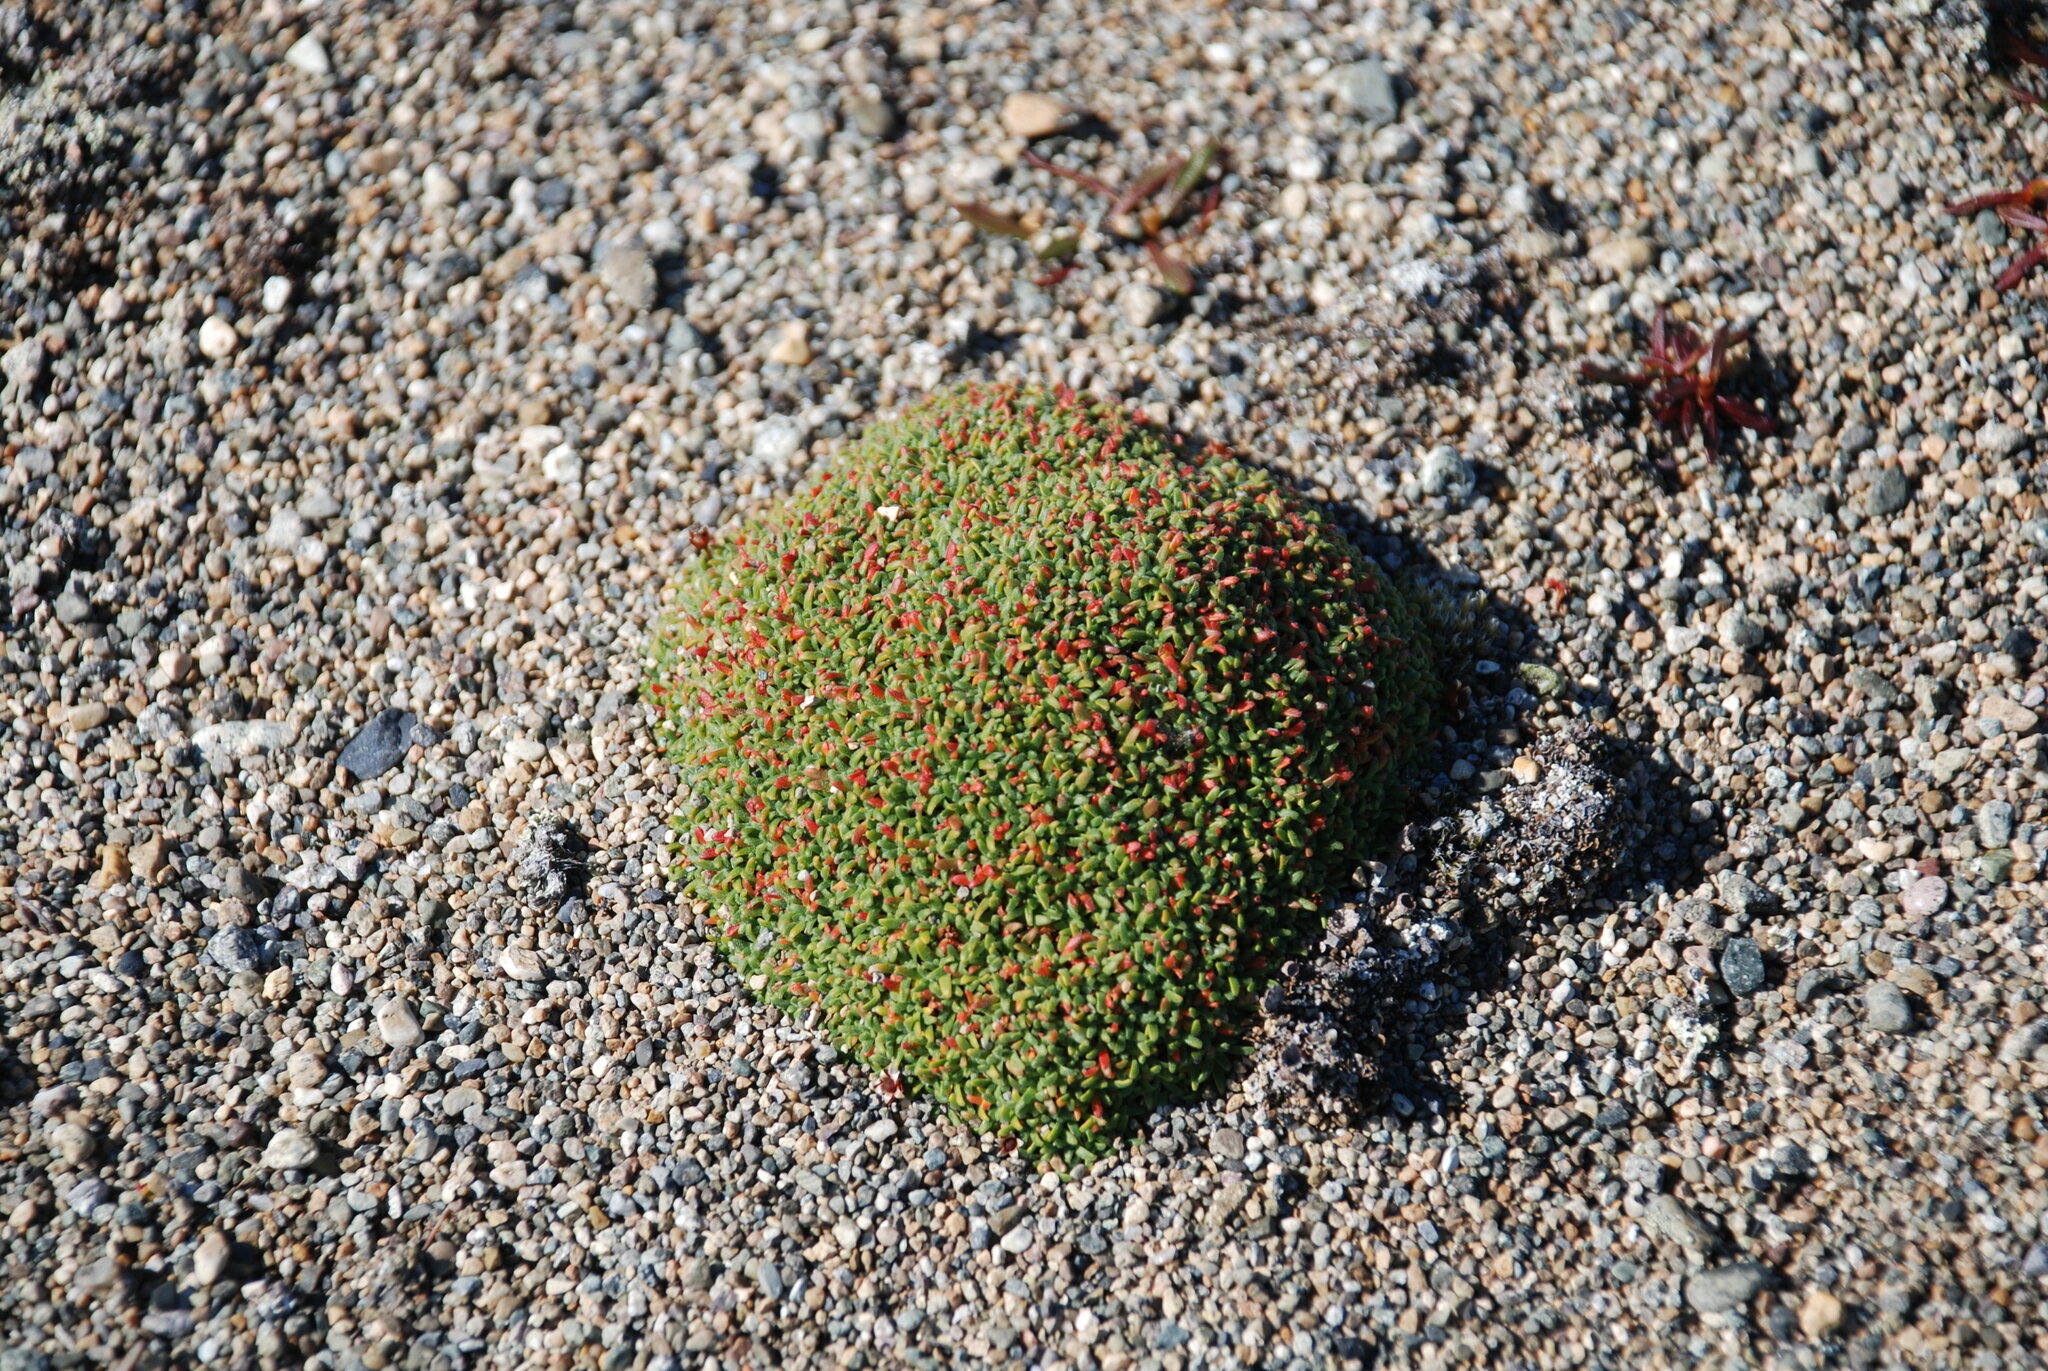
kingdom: Plantae
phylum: Tracheophyta
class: Magnoliopsida
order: Ericales
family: Primulaceae
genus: Androsace
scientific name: Androsace ochotensis
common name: Alaska dwarf-primrose
